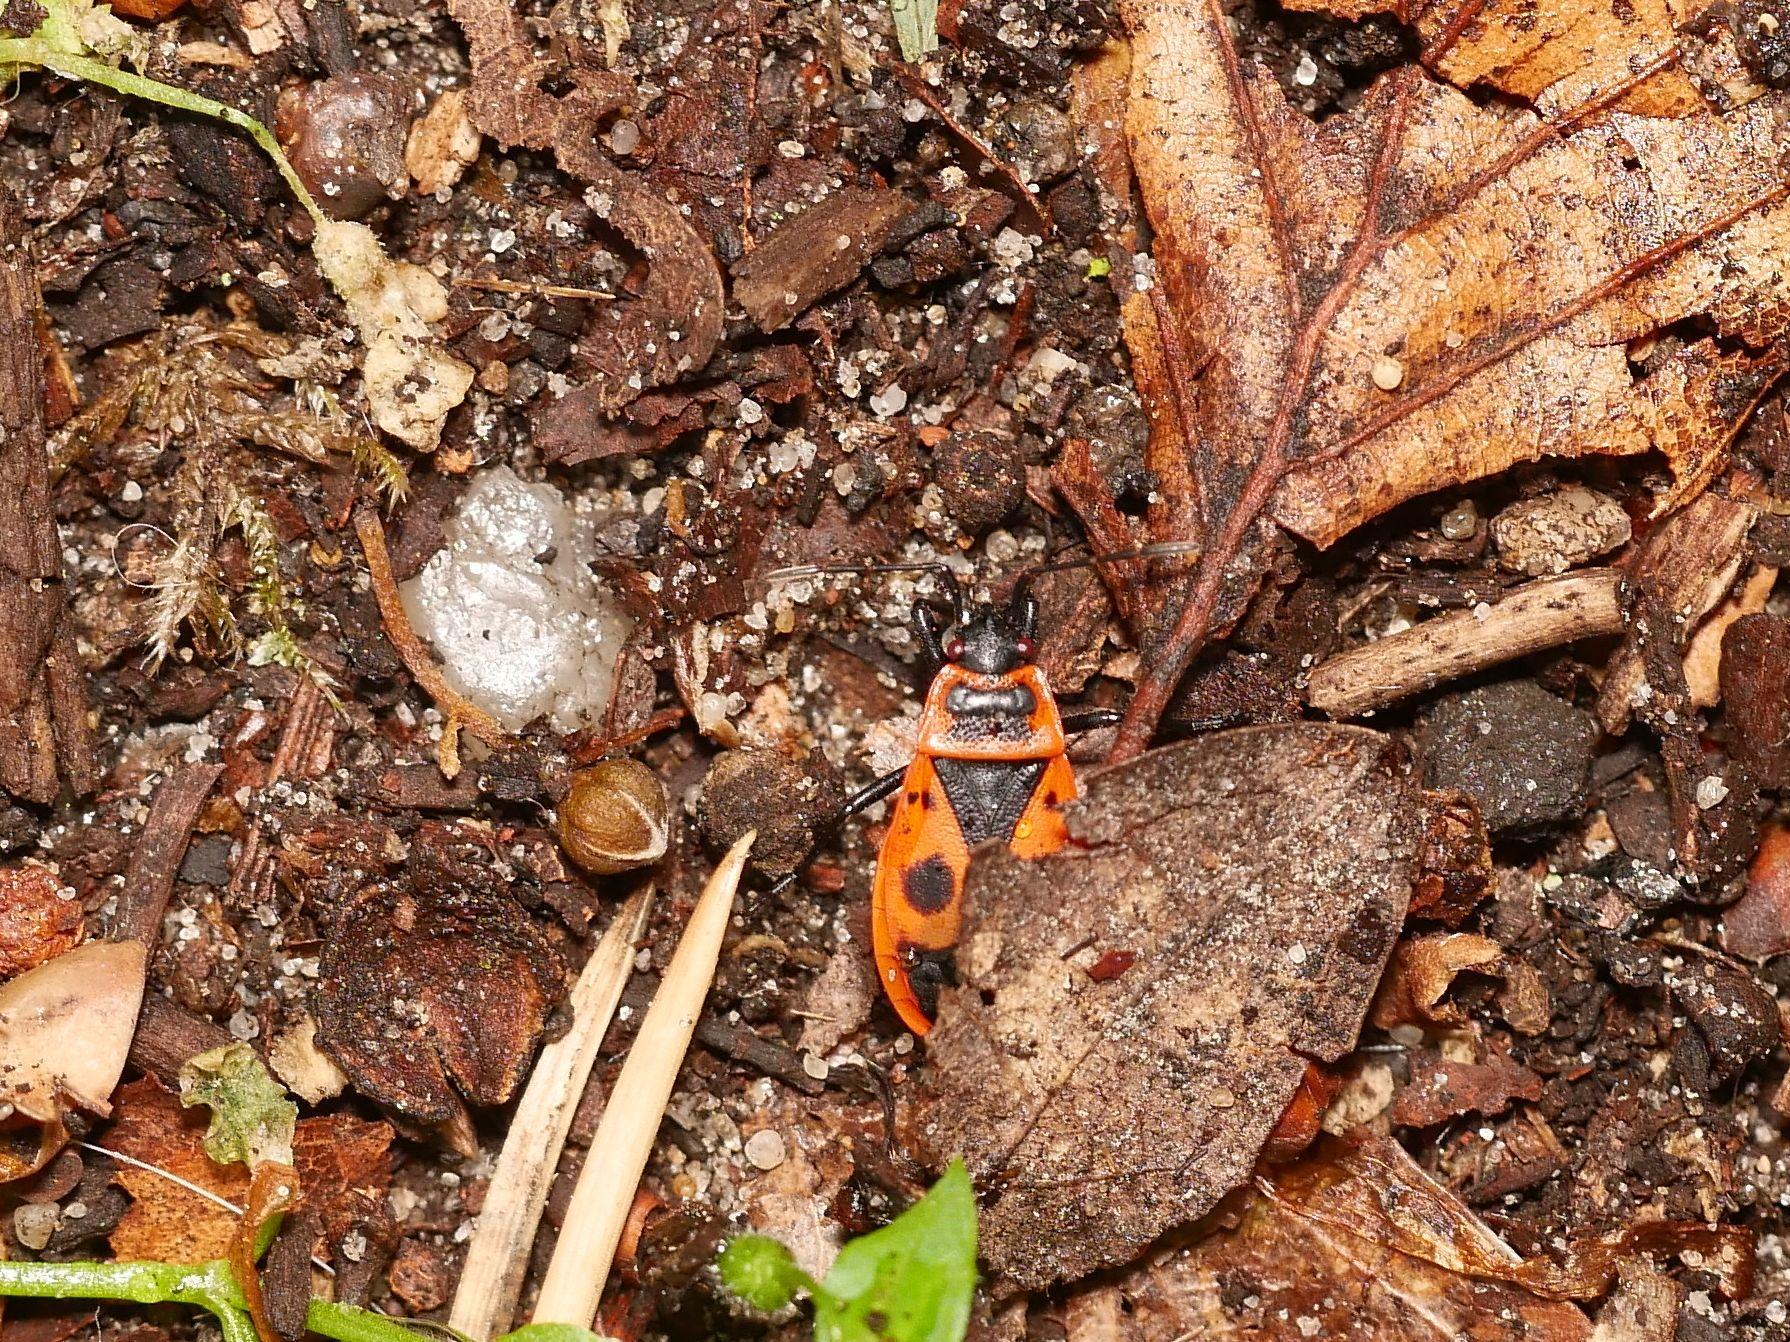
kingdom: Animalia
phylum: Arthropoda
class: Insecta
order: Hemiptera
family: Pyrrhocoridae
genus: Pyrrhocoris
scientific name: Pyrrhocoris apterus
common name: Firebug
